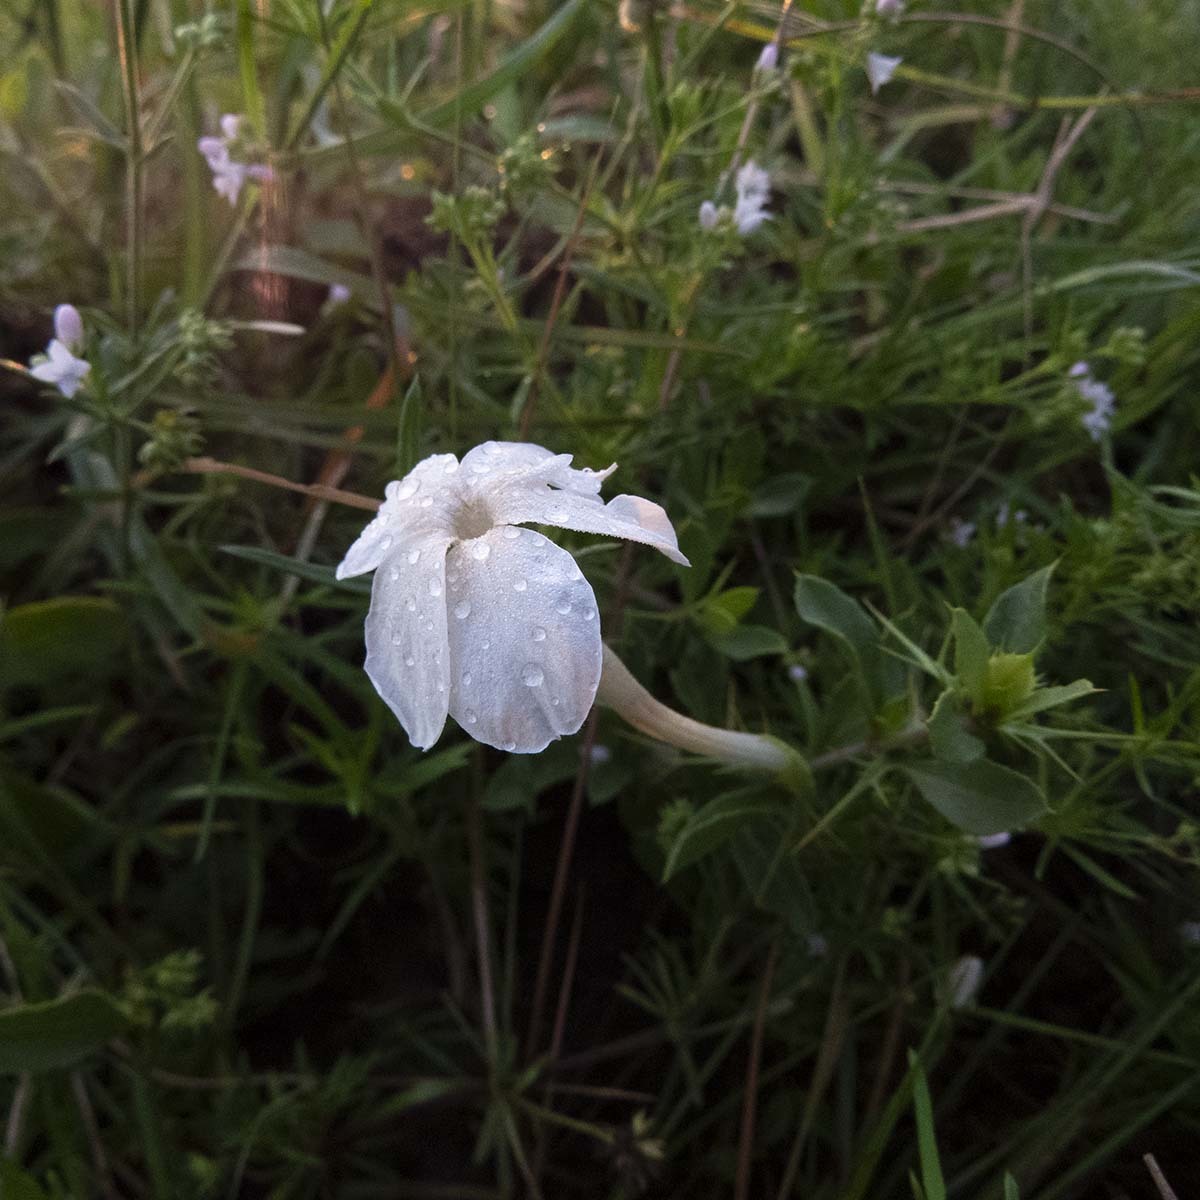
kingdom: Plantae
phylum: Tracheophyta
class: Magnoliopsida
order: Lamiales
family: Acanthaceae
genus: Barleria
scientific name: Barleria noctiflora
